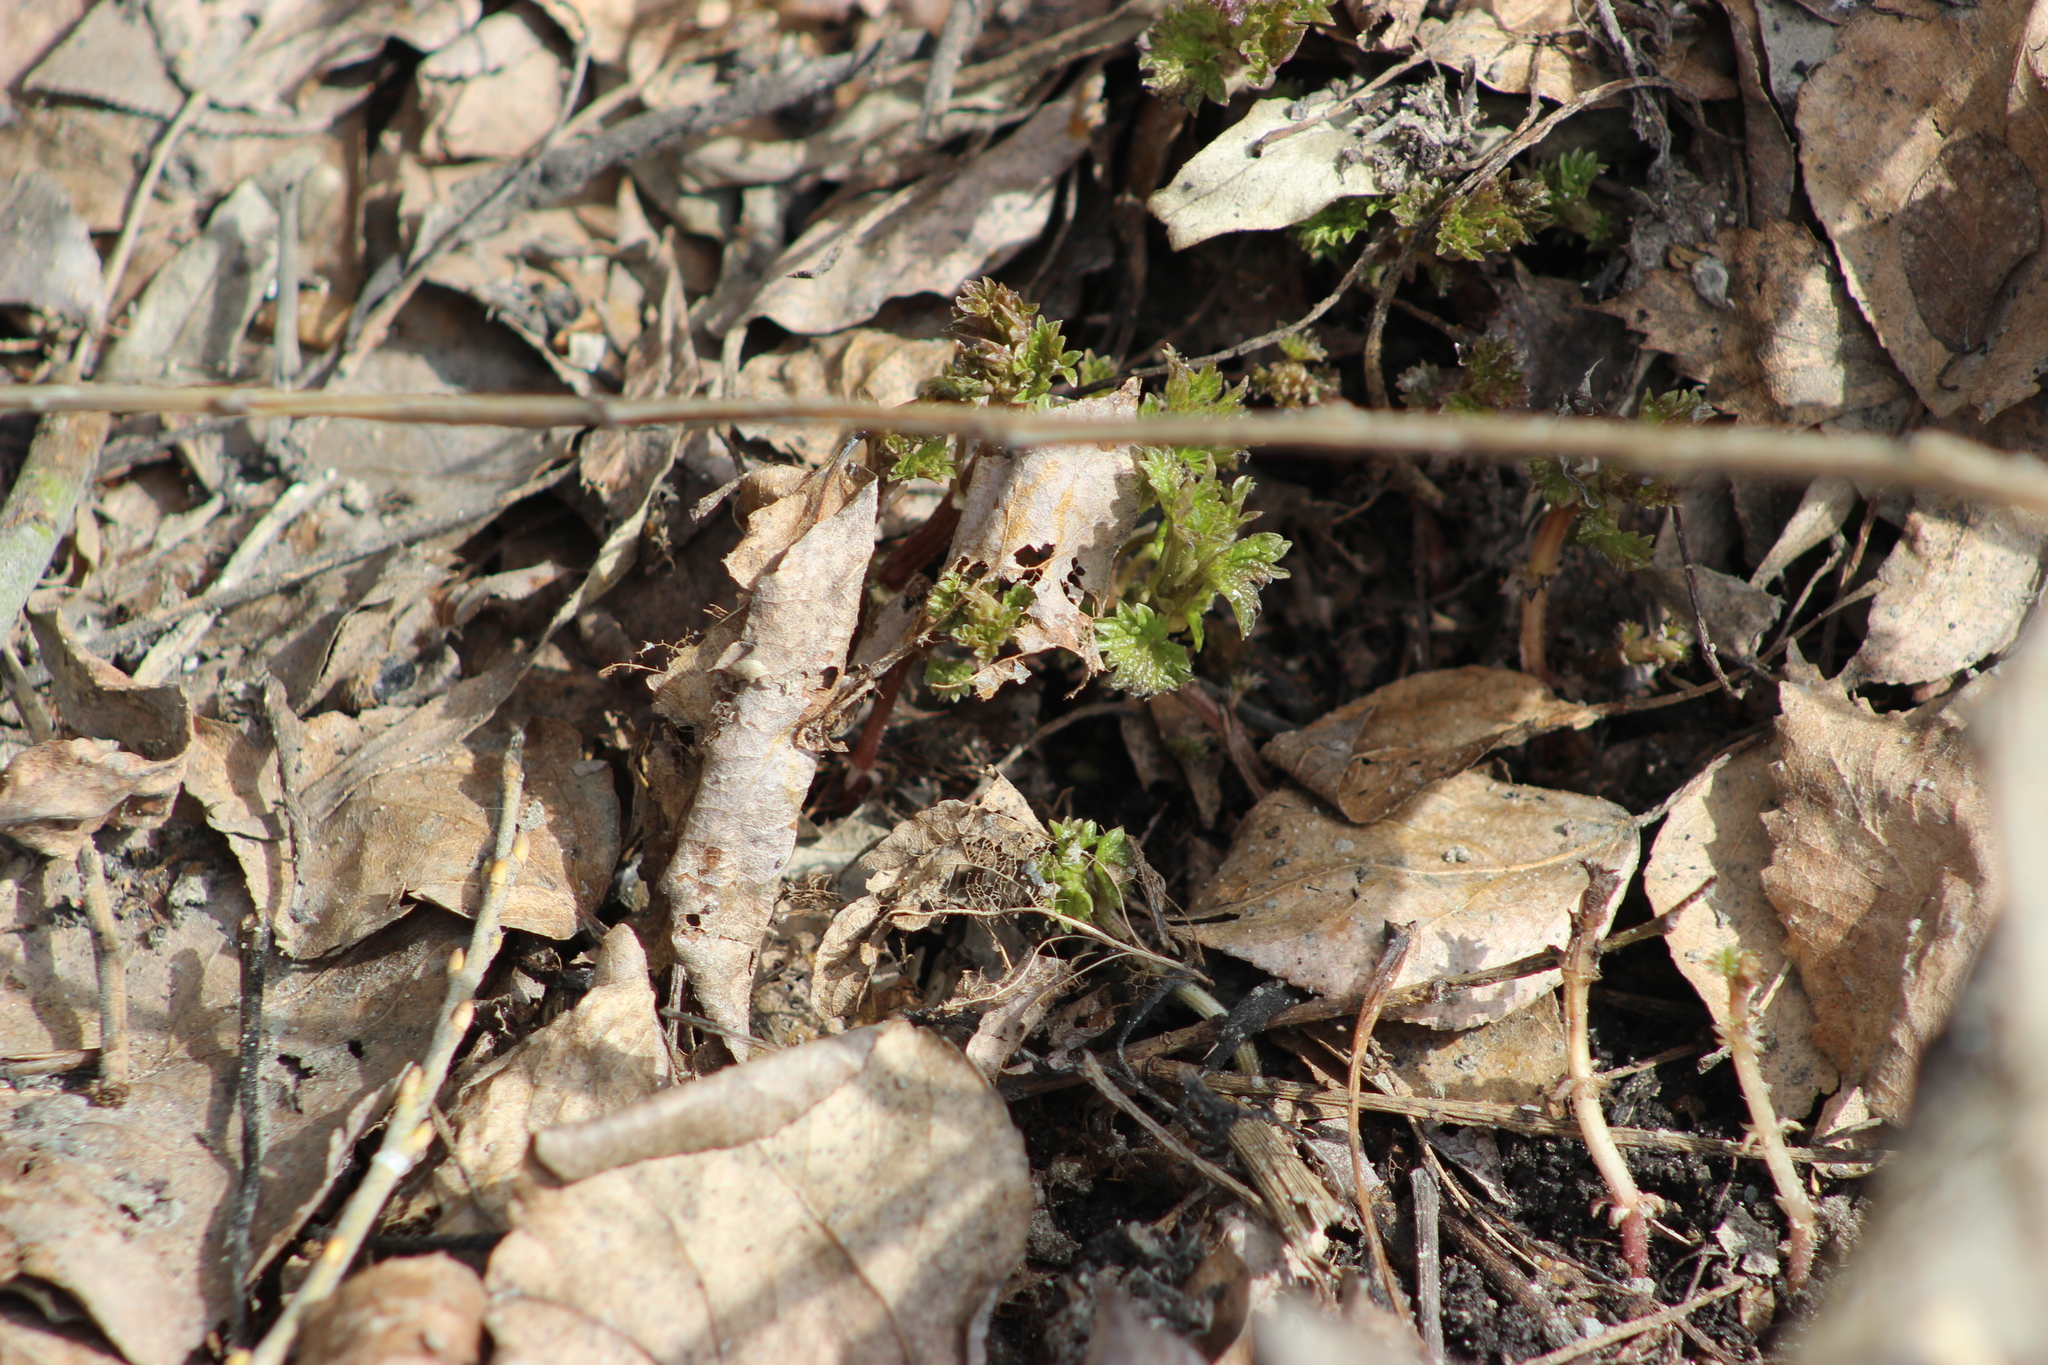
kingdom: Plantae
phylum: Tracheophyta
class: Magnoliopsida
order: Rosales
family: Urticaceae
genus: Urtica
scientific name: Urtica dioica
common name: Common nettle
